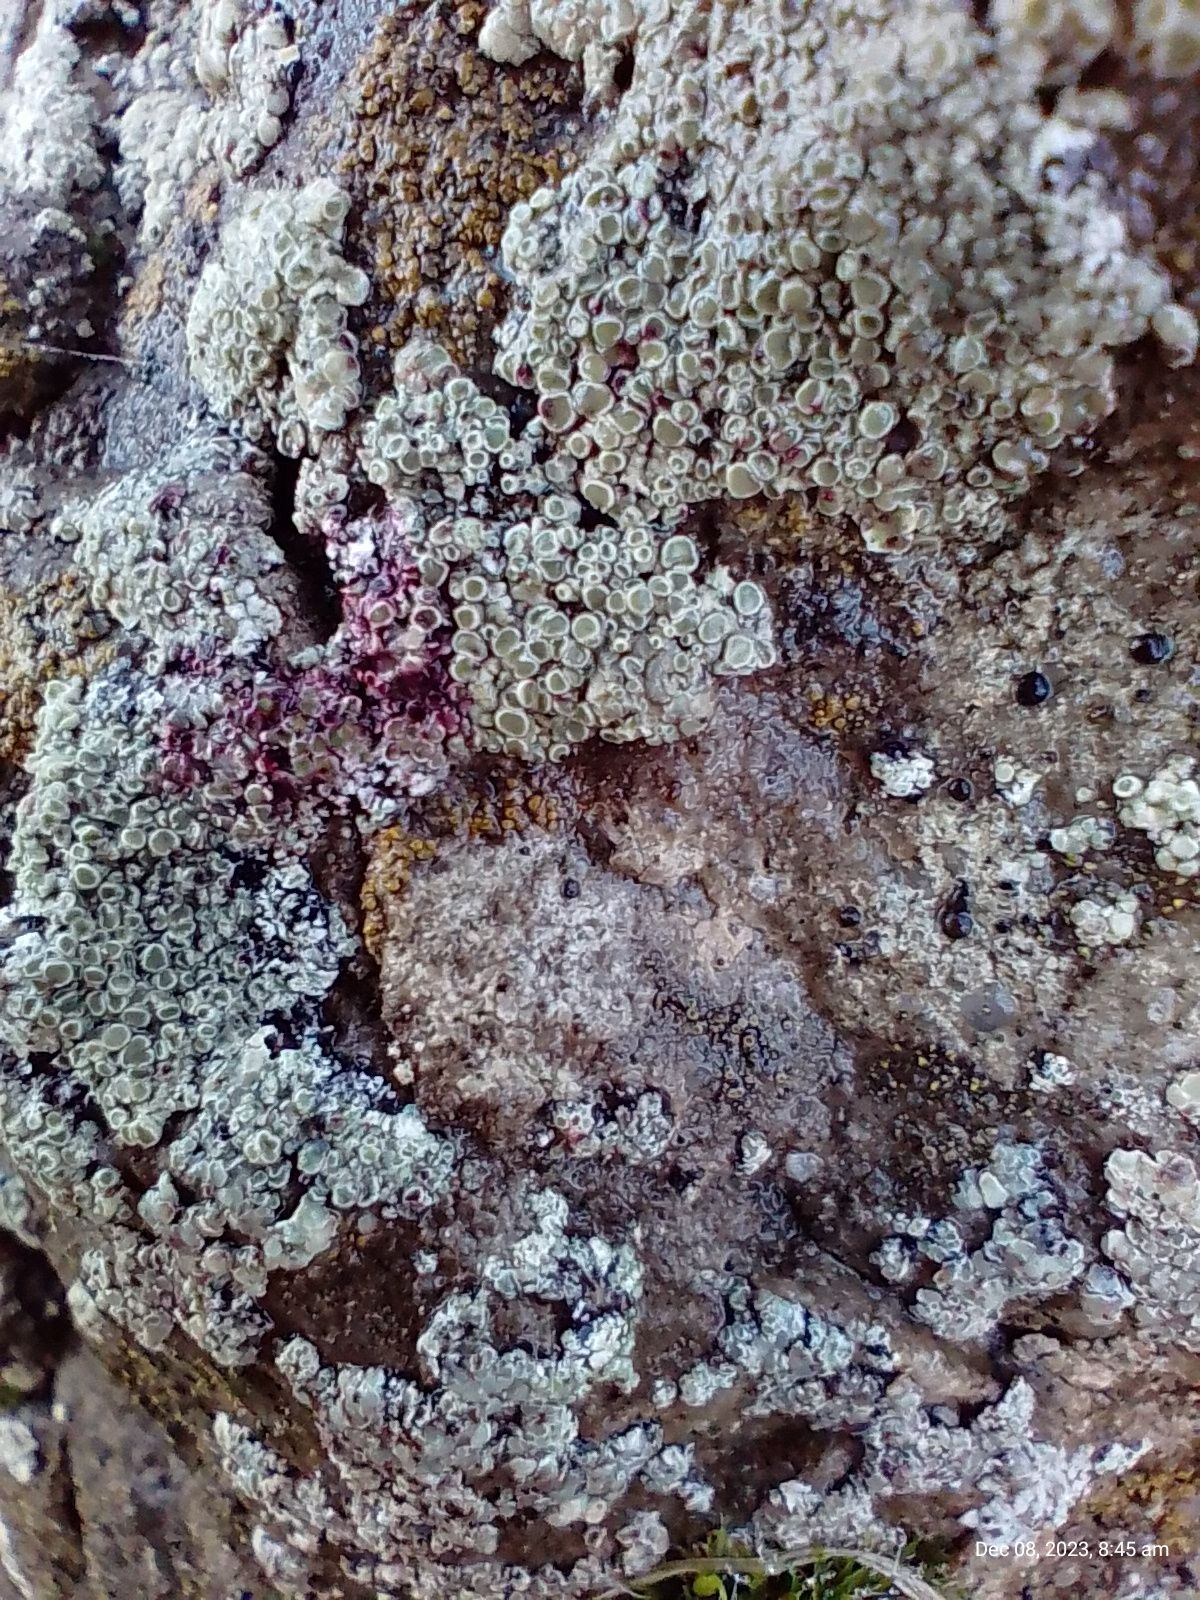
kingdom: Fungi
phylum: Ascomycota
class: Lecanoromycetes
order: Lecanorales
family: Lecanoraceae
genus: Polyozosia
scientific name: Polyozosia albescens
